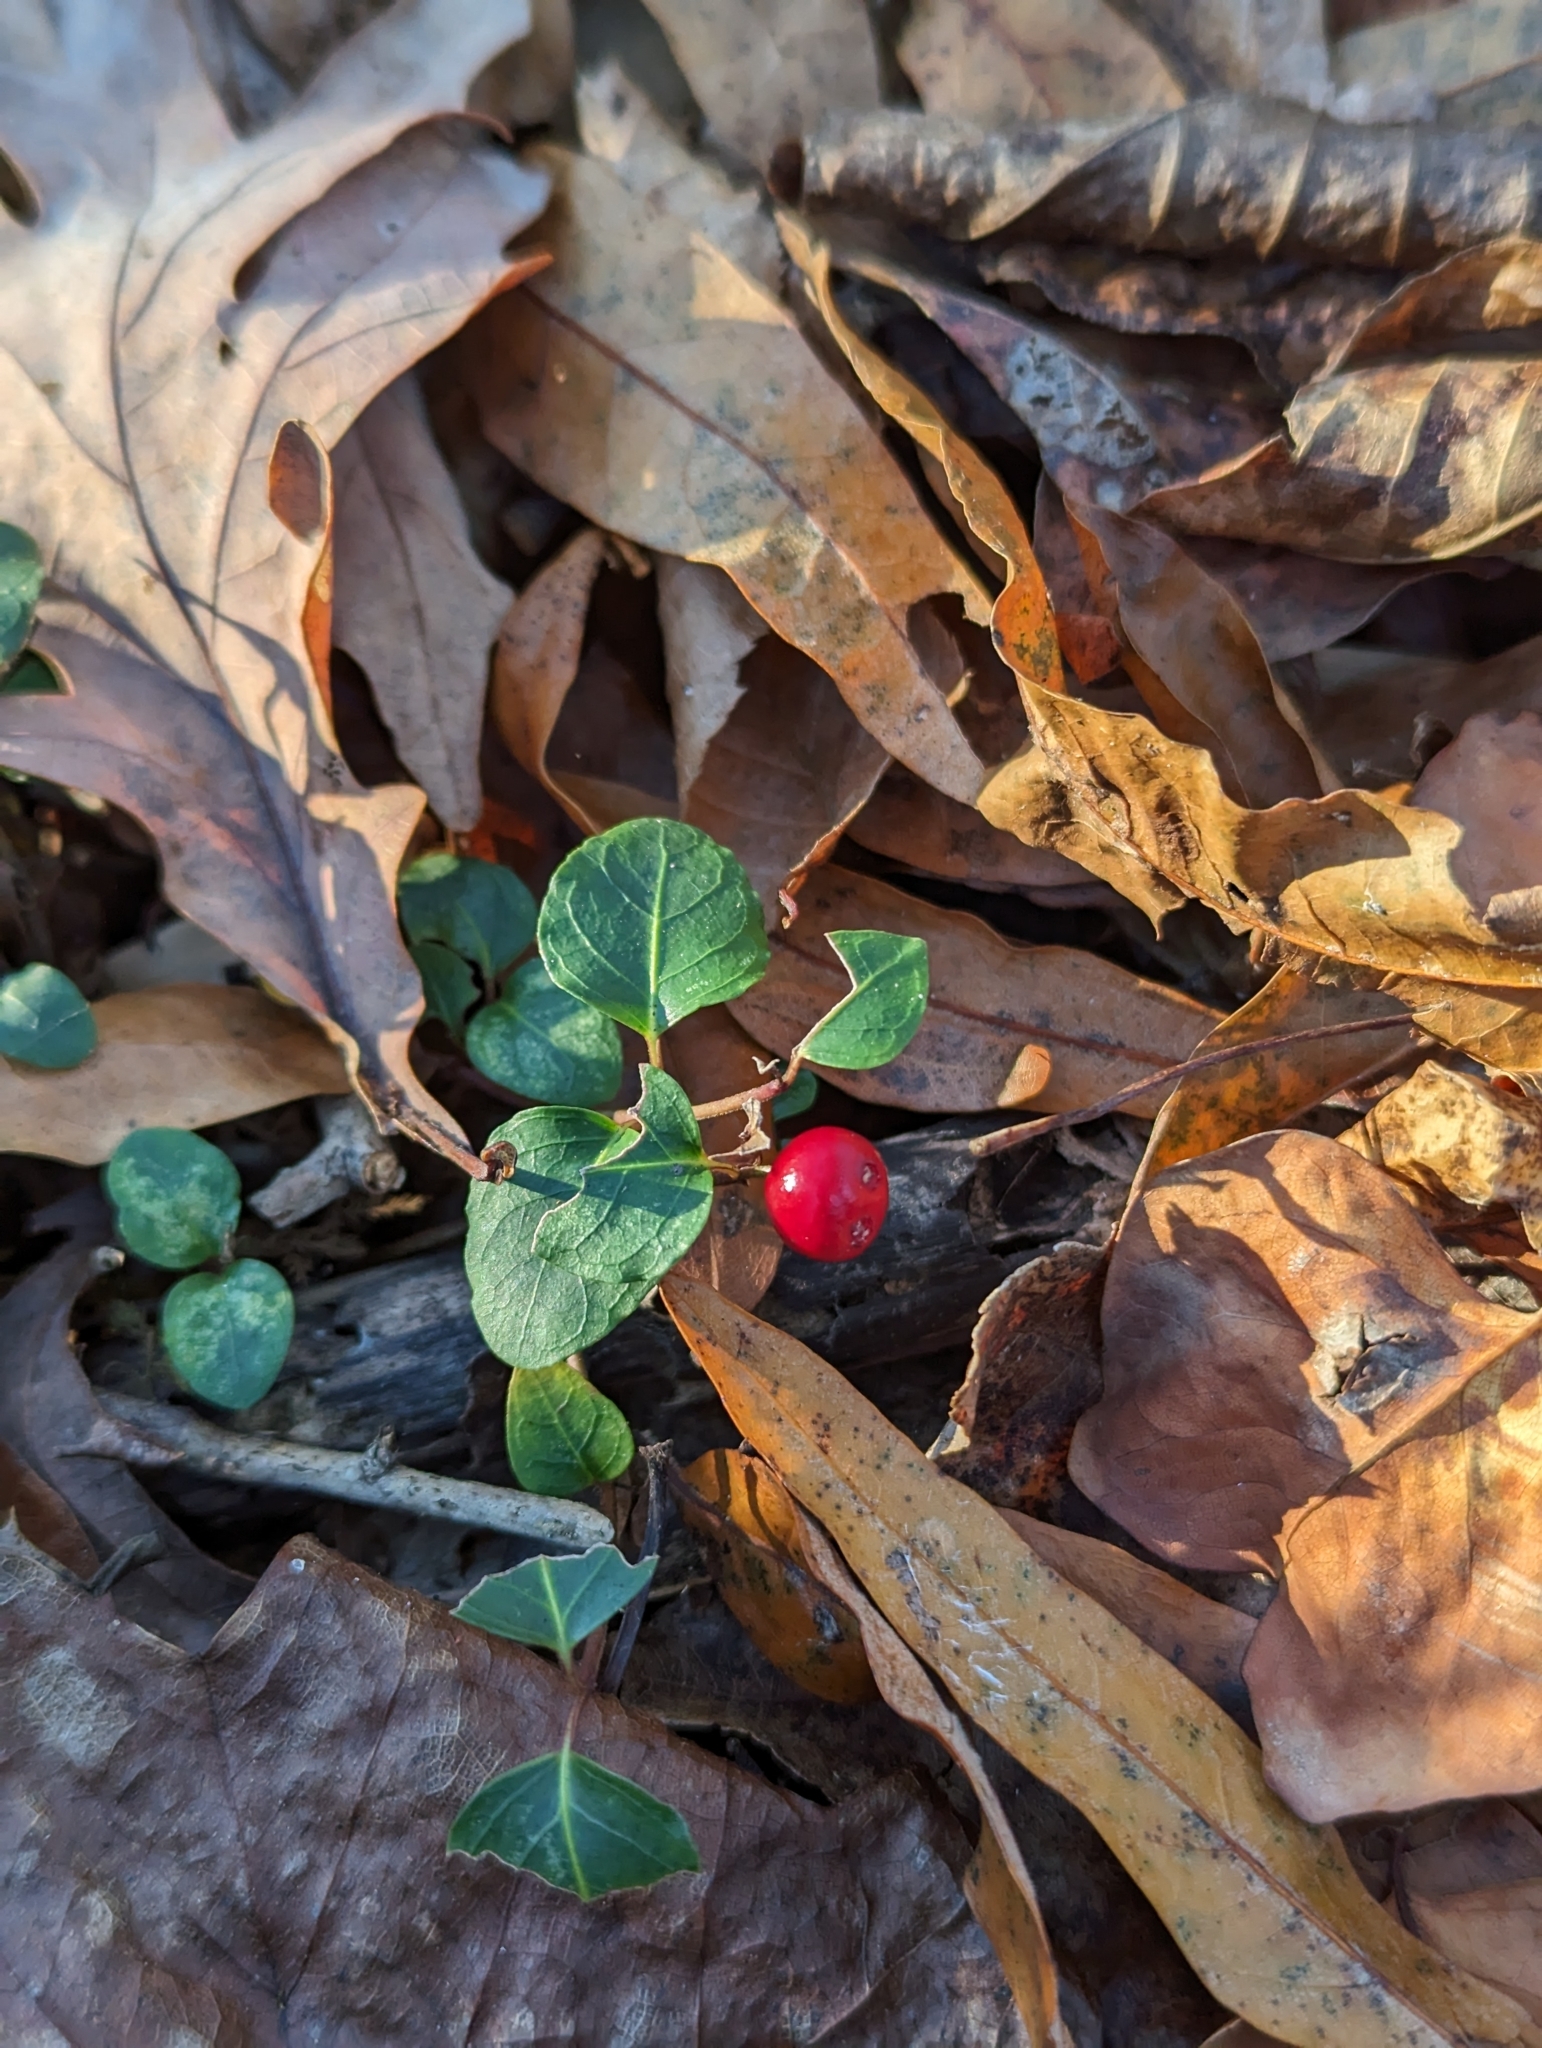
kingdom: Plantae
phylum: Tracheophyta
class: Magnoliopsida
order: Gentianales
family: Rubiaceae
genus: Mitchella
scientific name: Mitchella repens
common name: Partridge-berry
